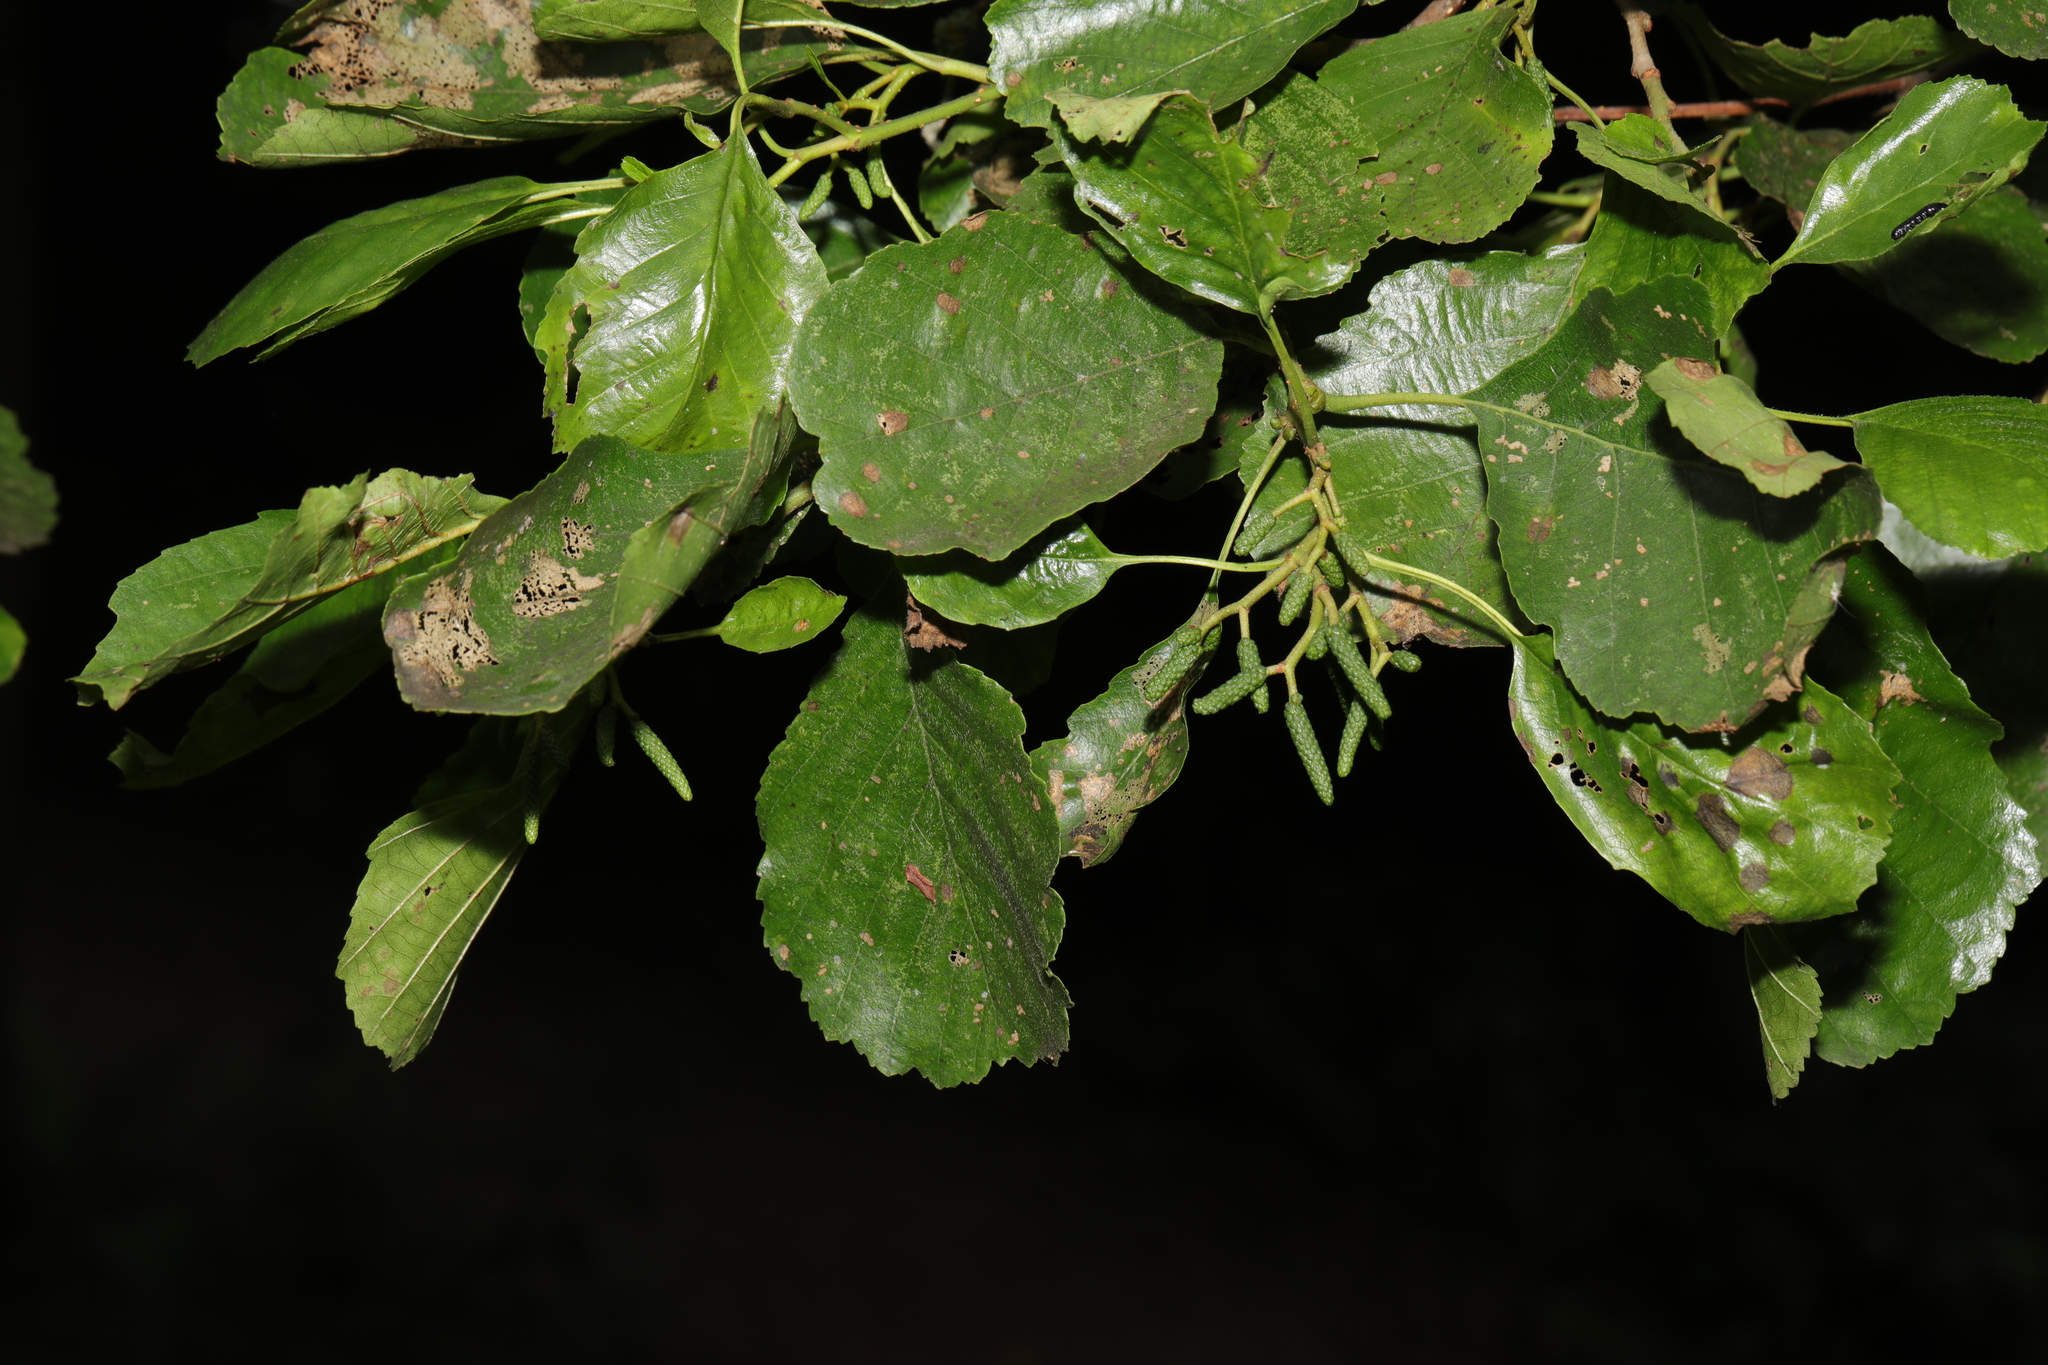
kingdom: Plantae
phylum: Tracheophyta
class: Magnoliopsida
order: Fagales
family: Betulaceae
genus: Alnus
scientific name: Alnus glutinosa
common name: Black alder
